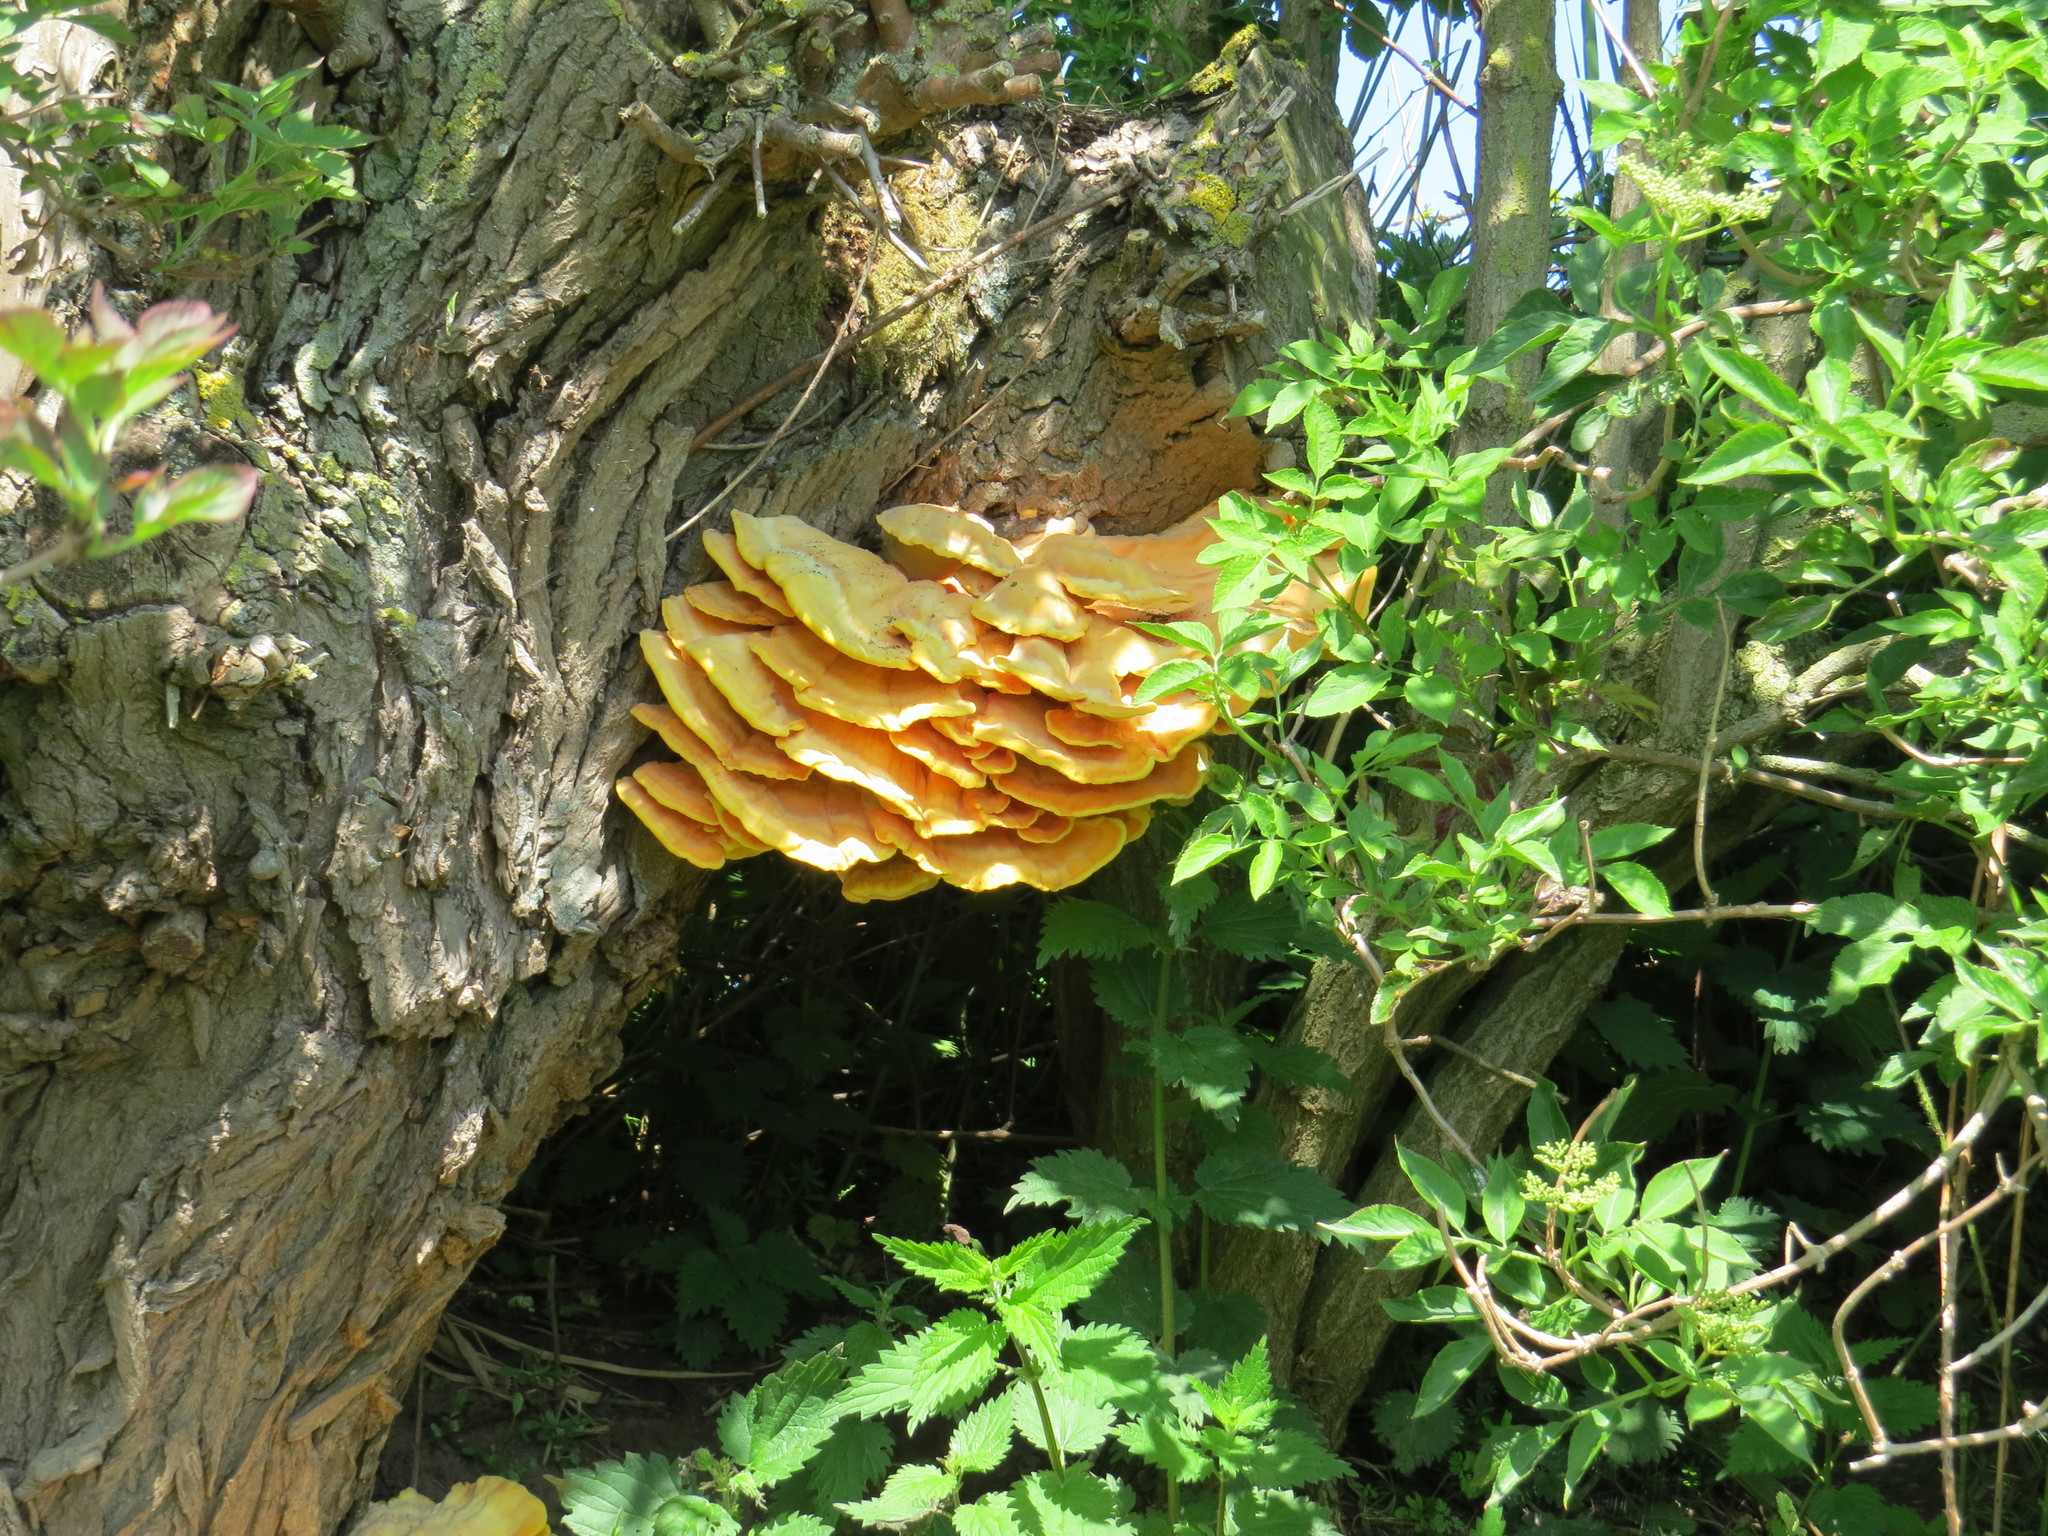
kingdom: Fungi
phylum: Basidiomycota
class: Agaricomycetes
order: Polyporales
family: Laetiporaceae
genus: Laetiporus
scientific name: Laetiporus sulphureus
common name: Chicken of the woods
